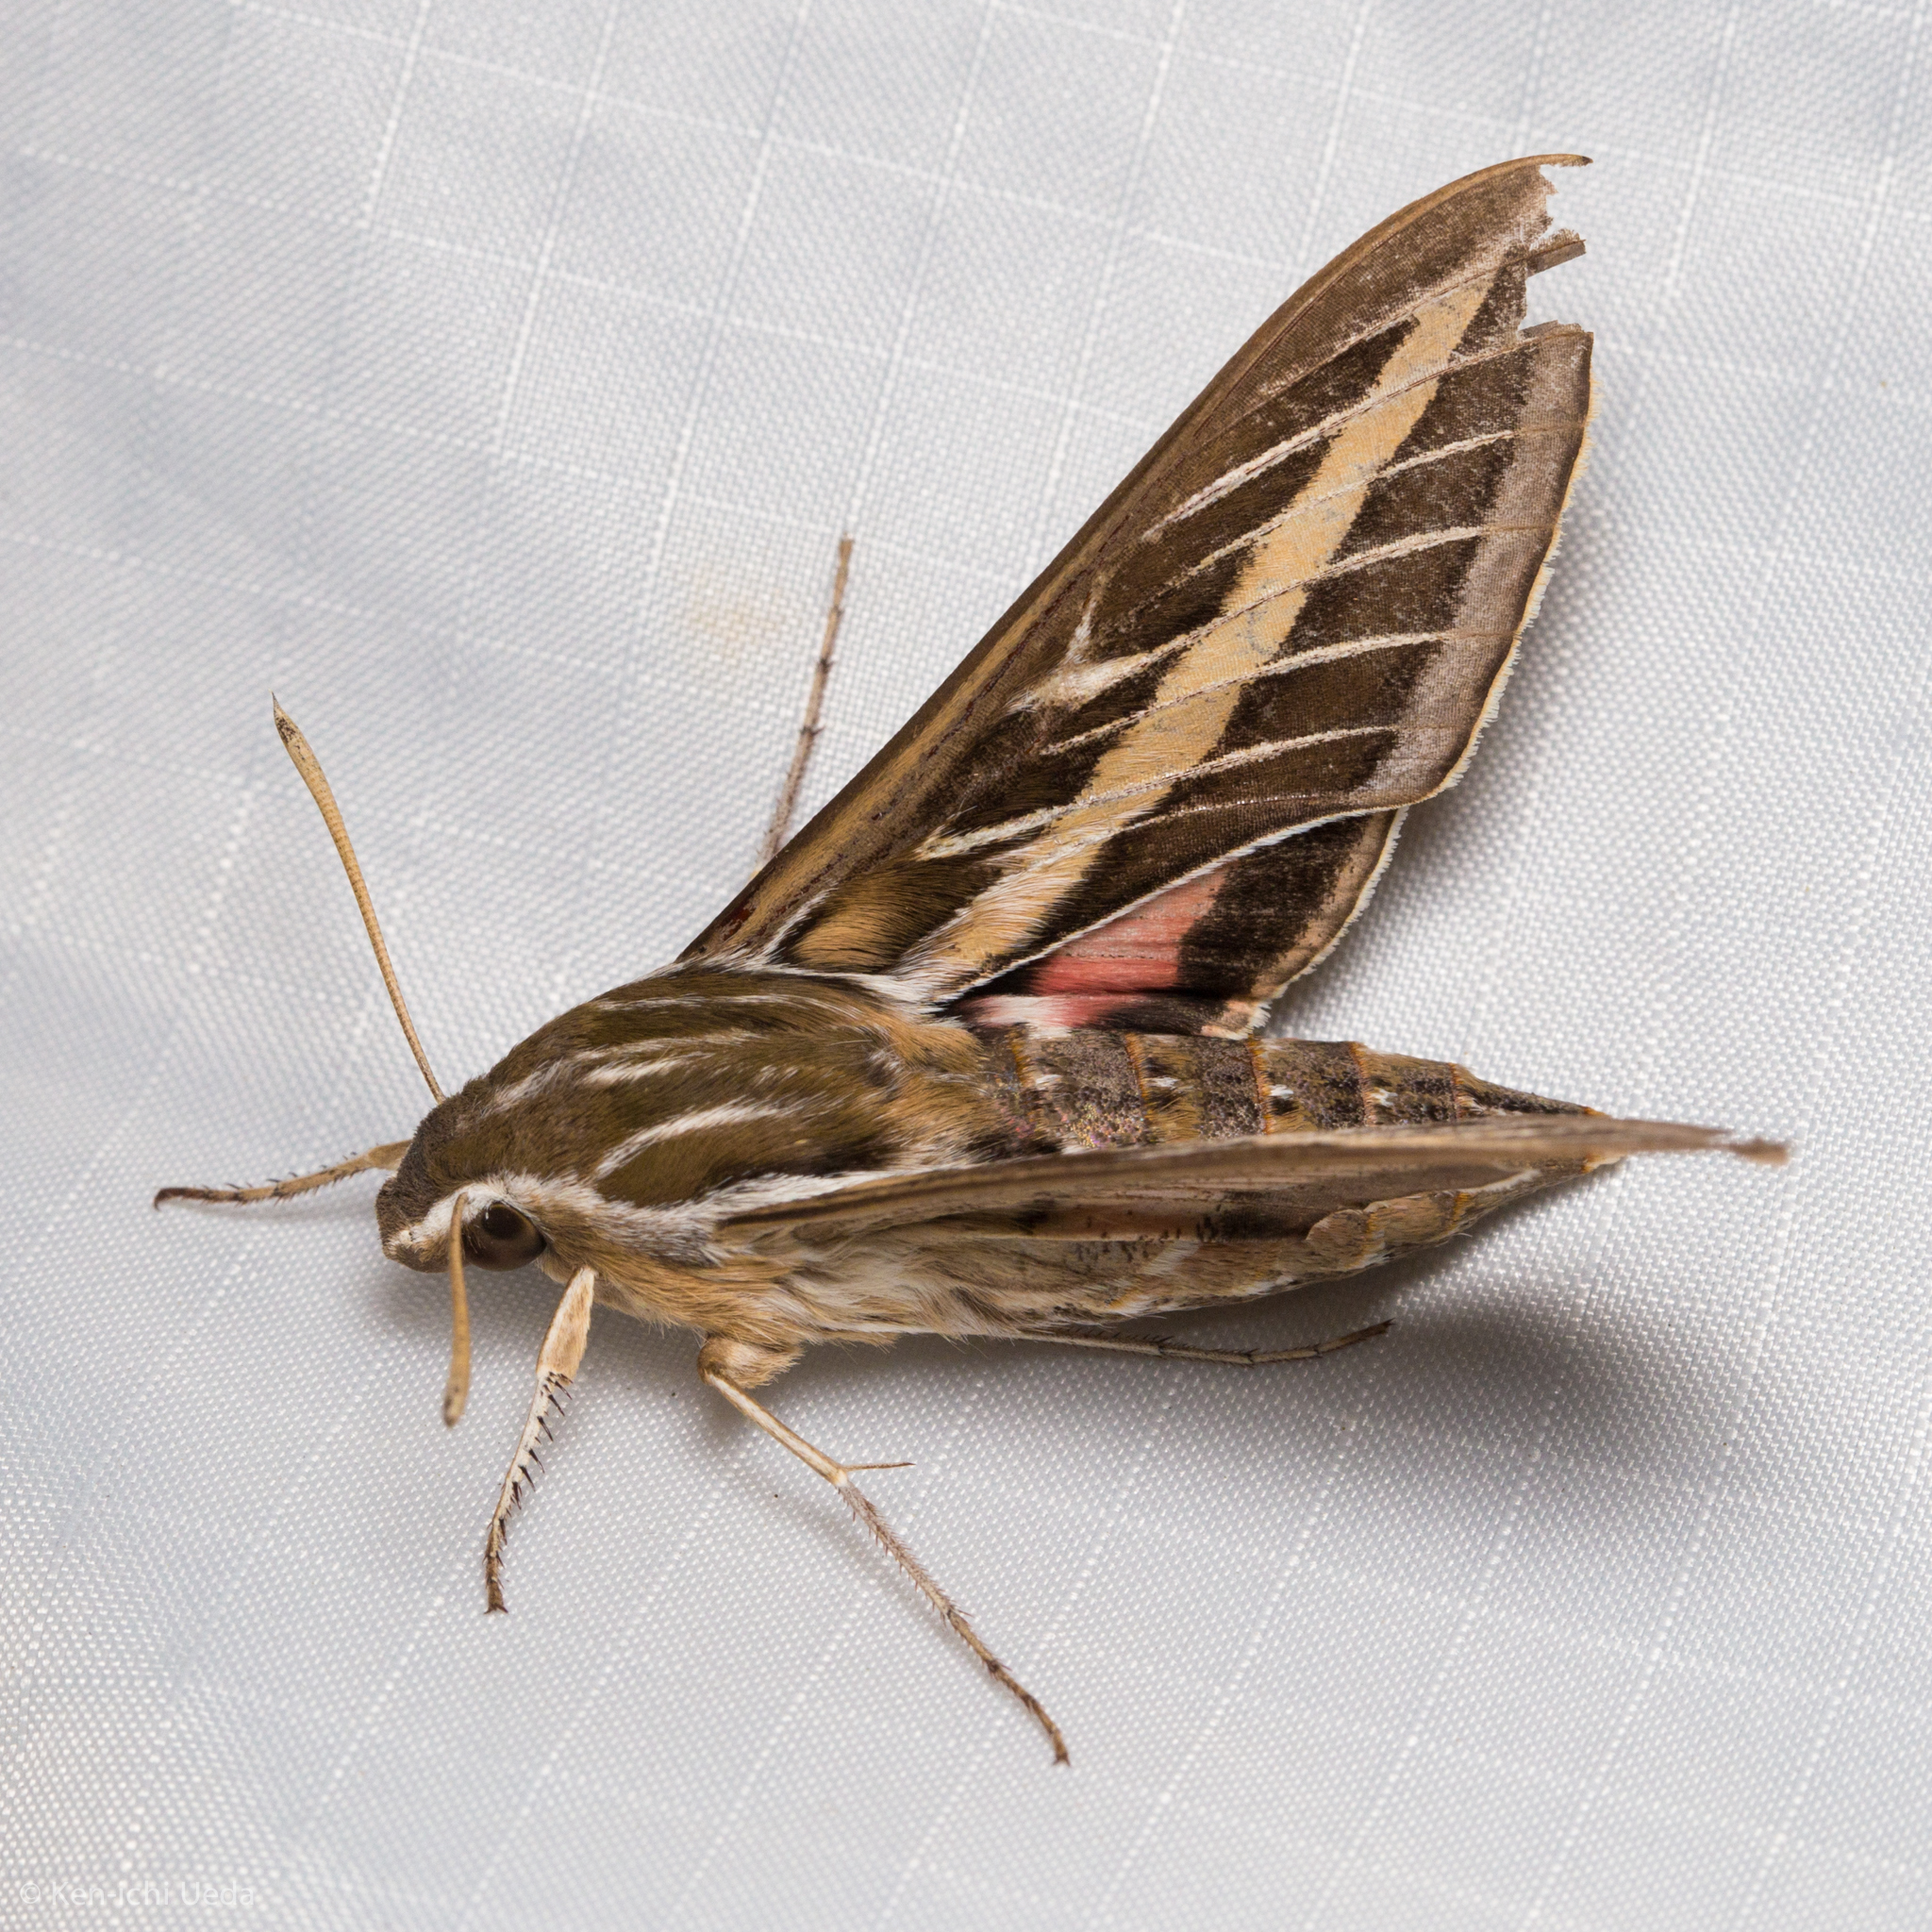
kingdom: Animalia
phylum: Arthropoda
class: Insecta
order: Lepidoptera
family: Sphingidae
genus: Hyles
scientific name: Hyles lineata
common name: White-lined sphinx
